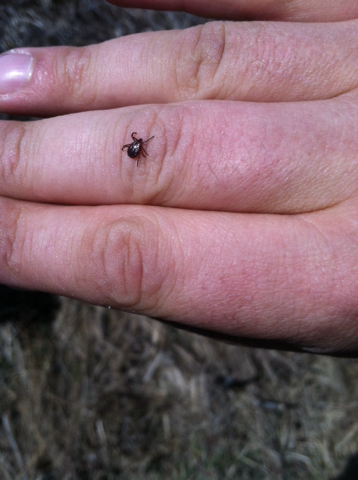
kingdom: Animalia
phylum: Arthropoda
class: Arachnida
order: Ixodida
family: Ixodidae
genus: Dermacentor
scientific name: Dermacentor variabilis
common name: American dog tick
